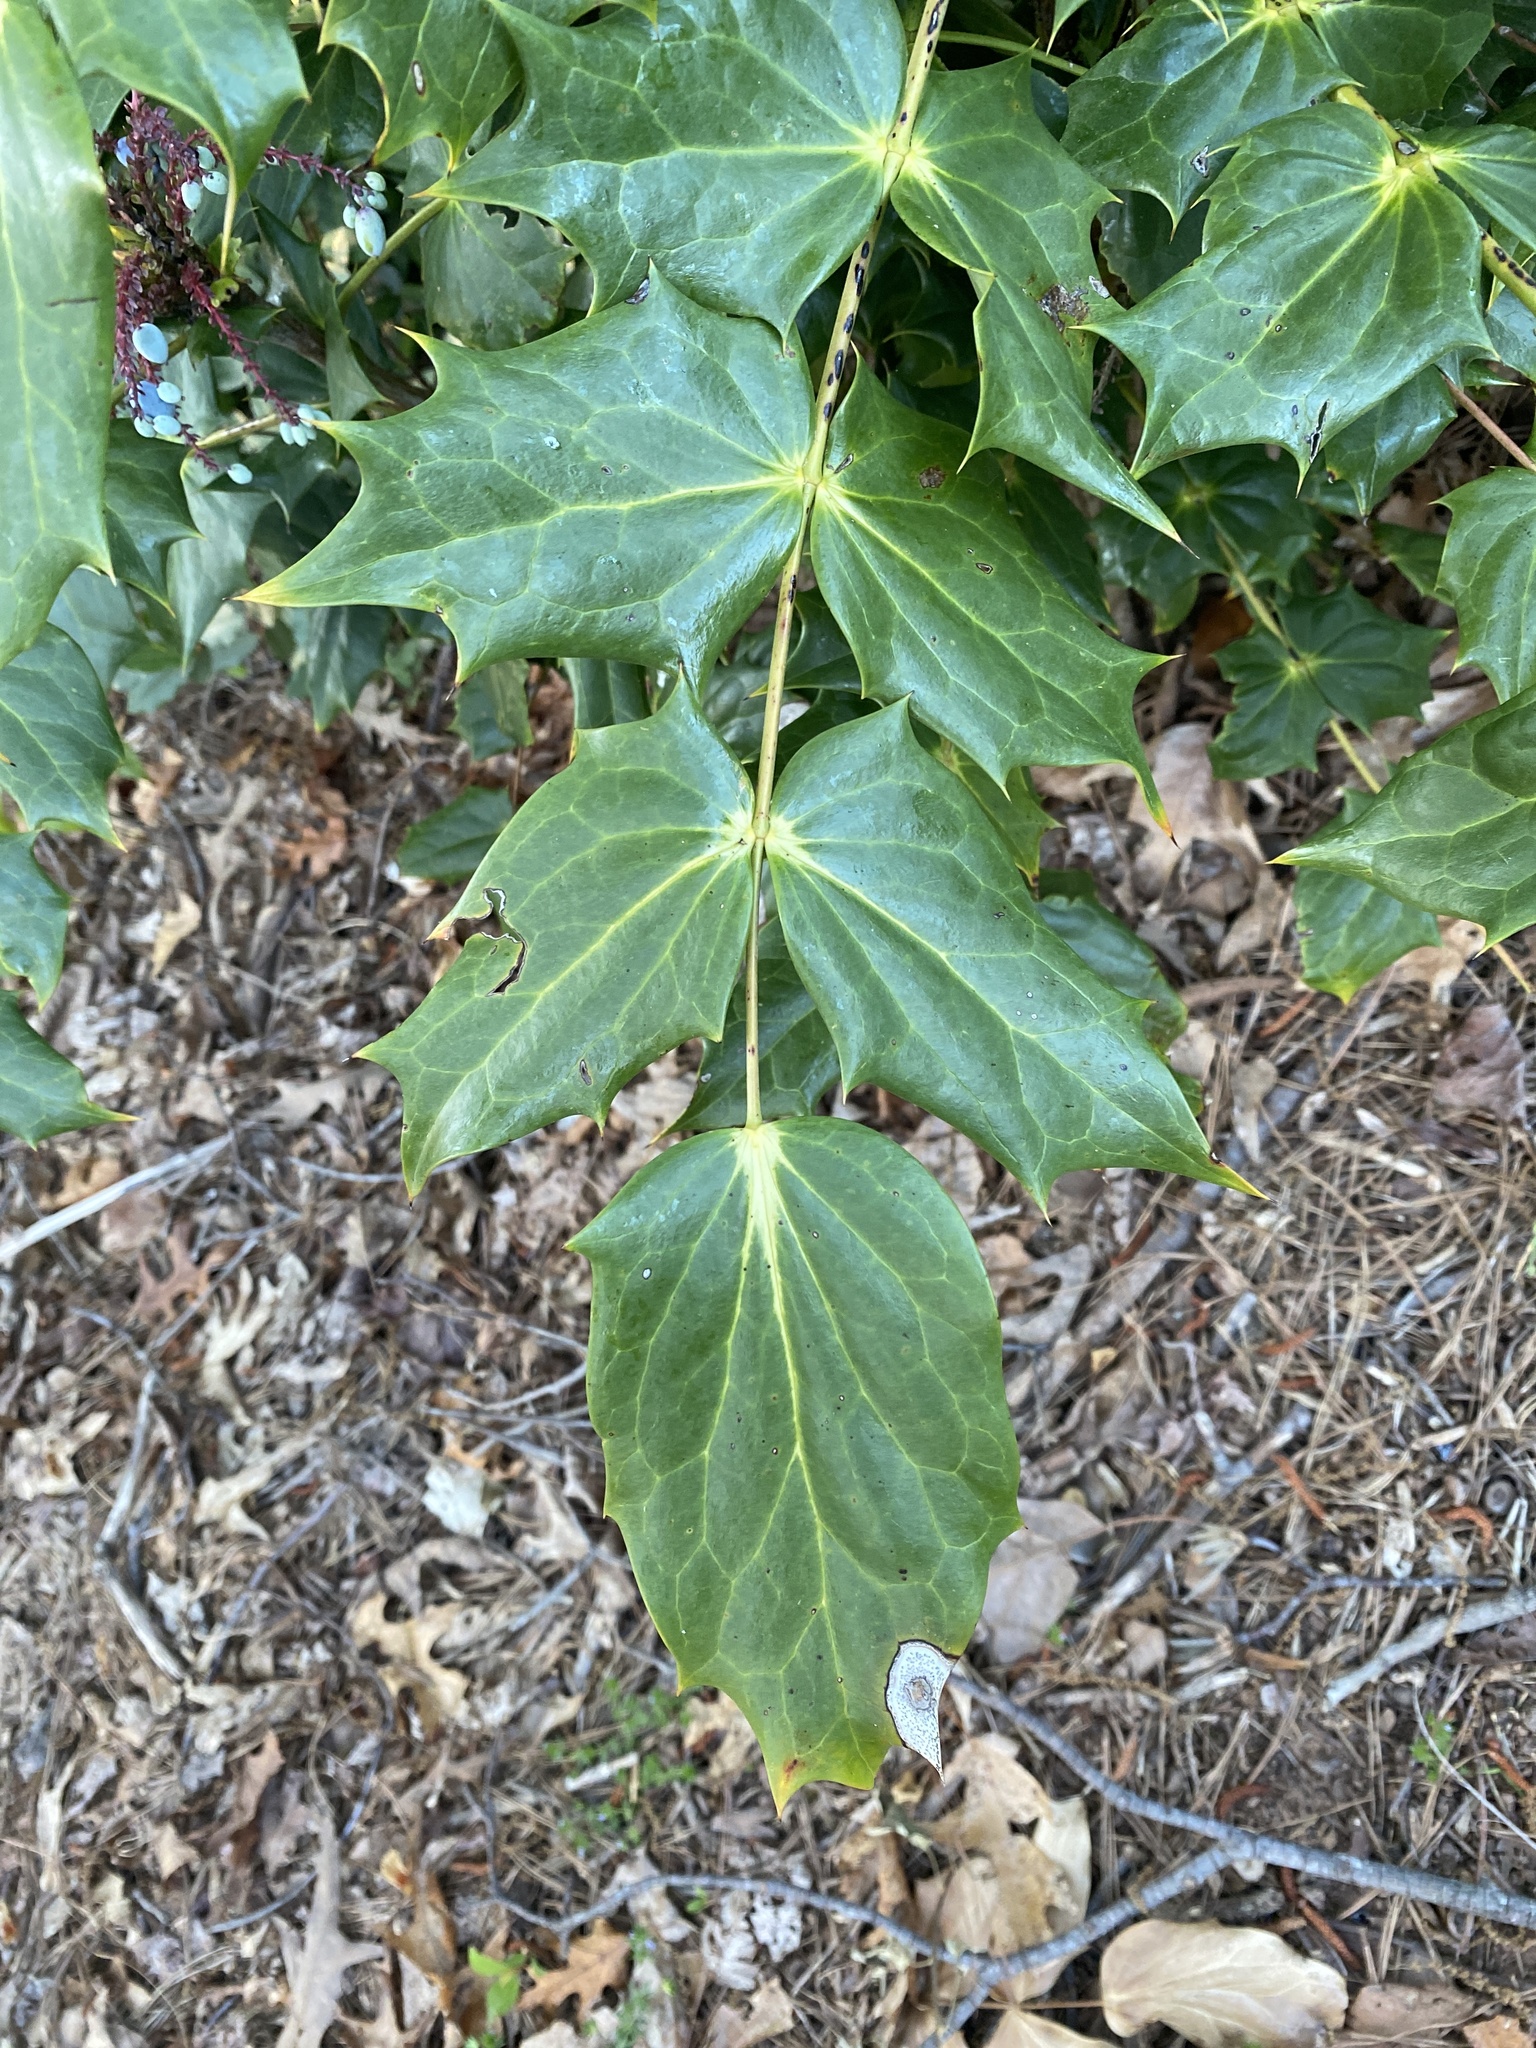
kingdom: Plantae
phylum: Tracheophyta
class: Magnoliopsida
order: Ranunculales
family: Berberidaceae
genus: Mahonia
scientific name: Mahonia bealei
